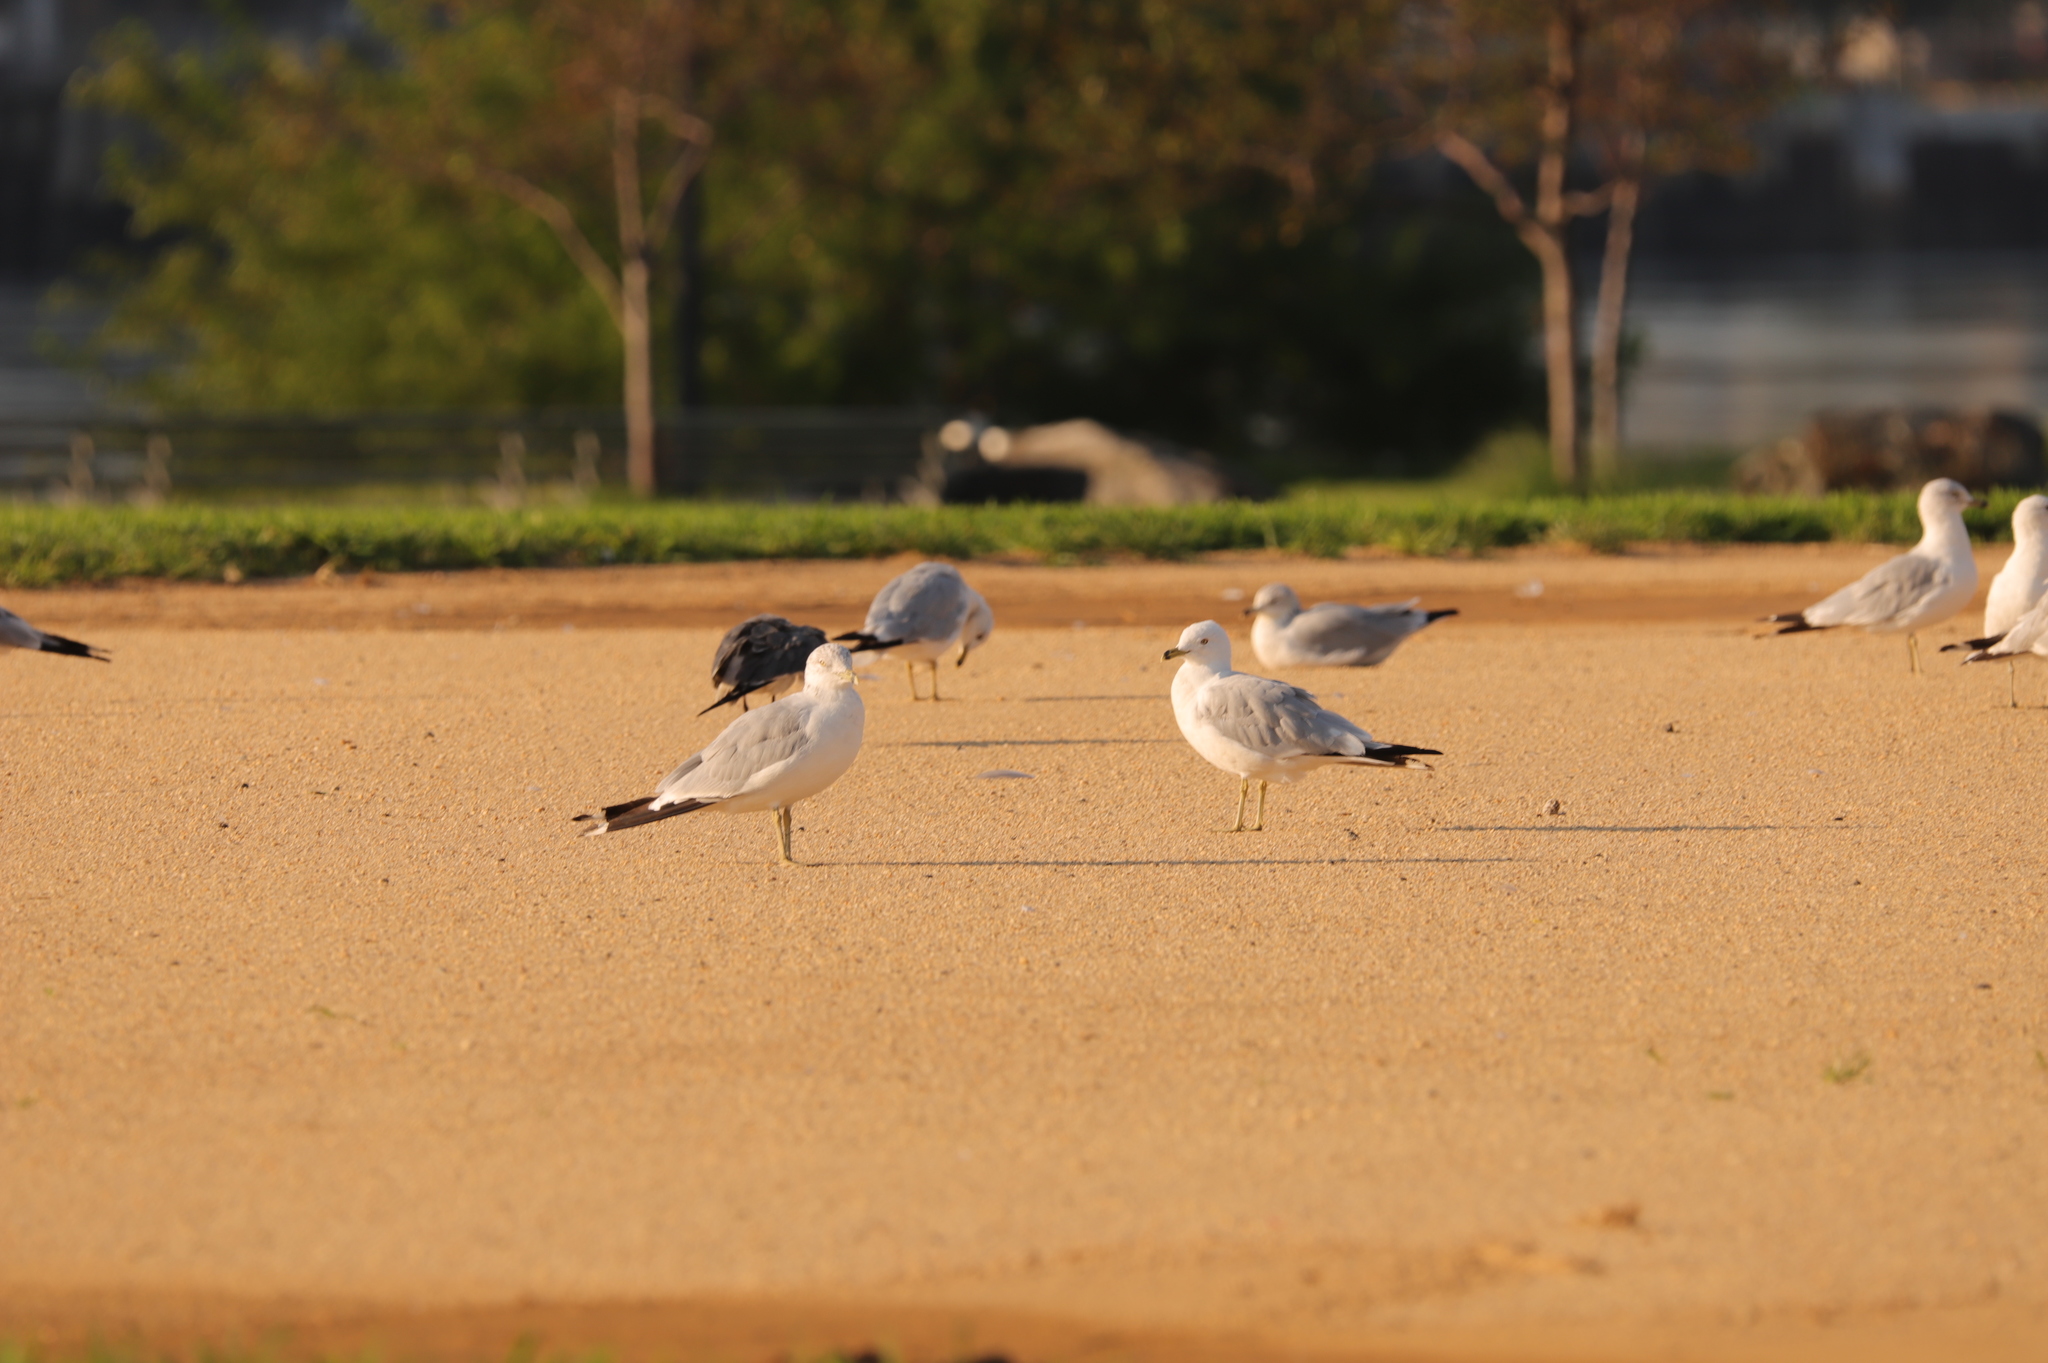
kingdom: Animalia
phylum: Chordata
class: Aves
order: Charadriiformes
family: Laridae
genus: Larus
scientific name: Larus delawarensis
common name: Ring-billed gull
